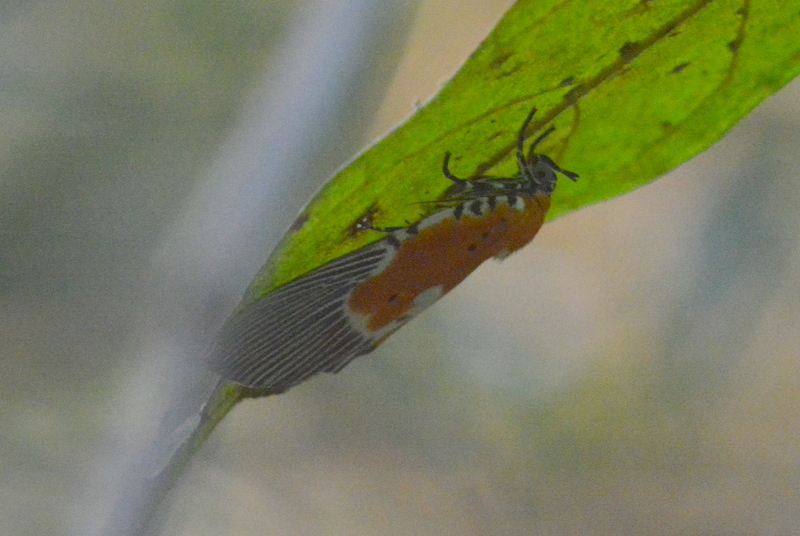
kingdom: Animalia
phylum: Arthropoda
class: Insecta
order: Lepidoptera
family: Erebidae
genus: Peridrome
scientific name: Peridrome orbicularis
